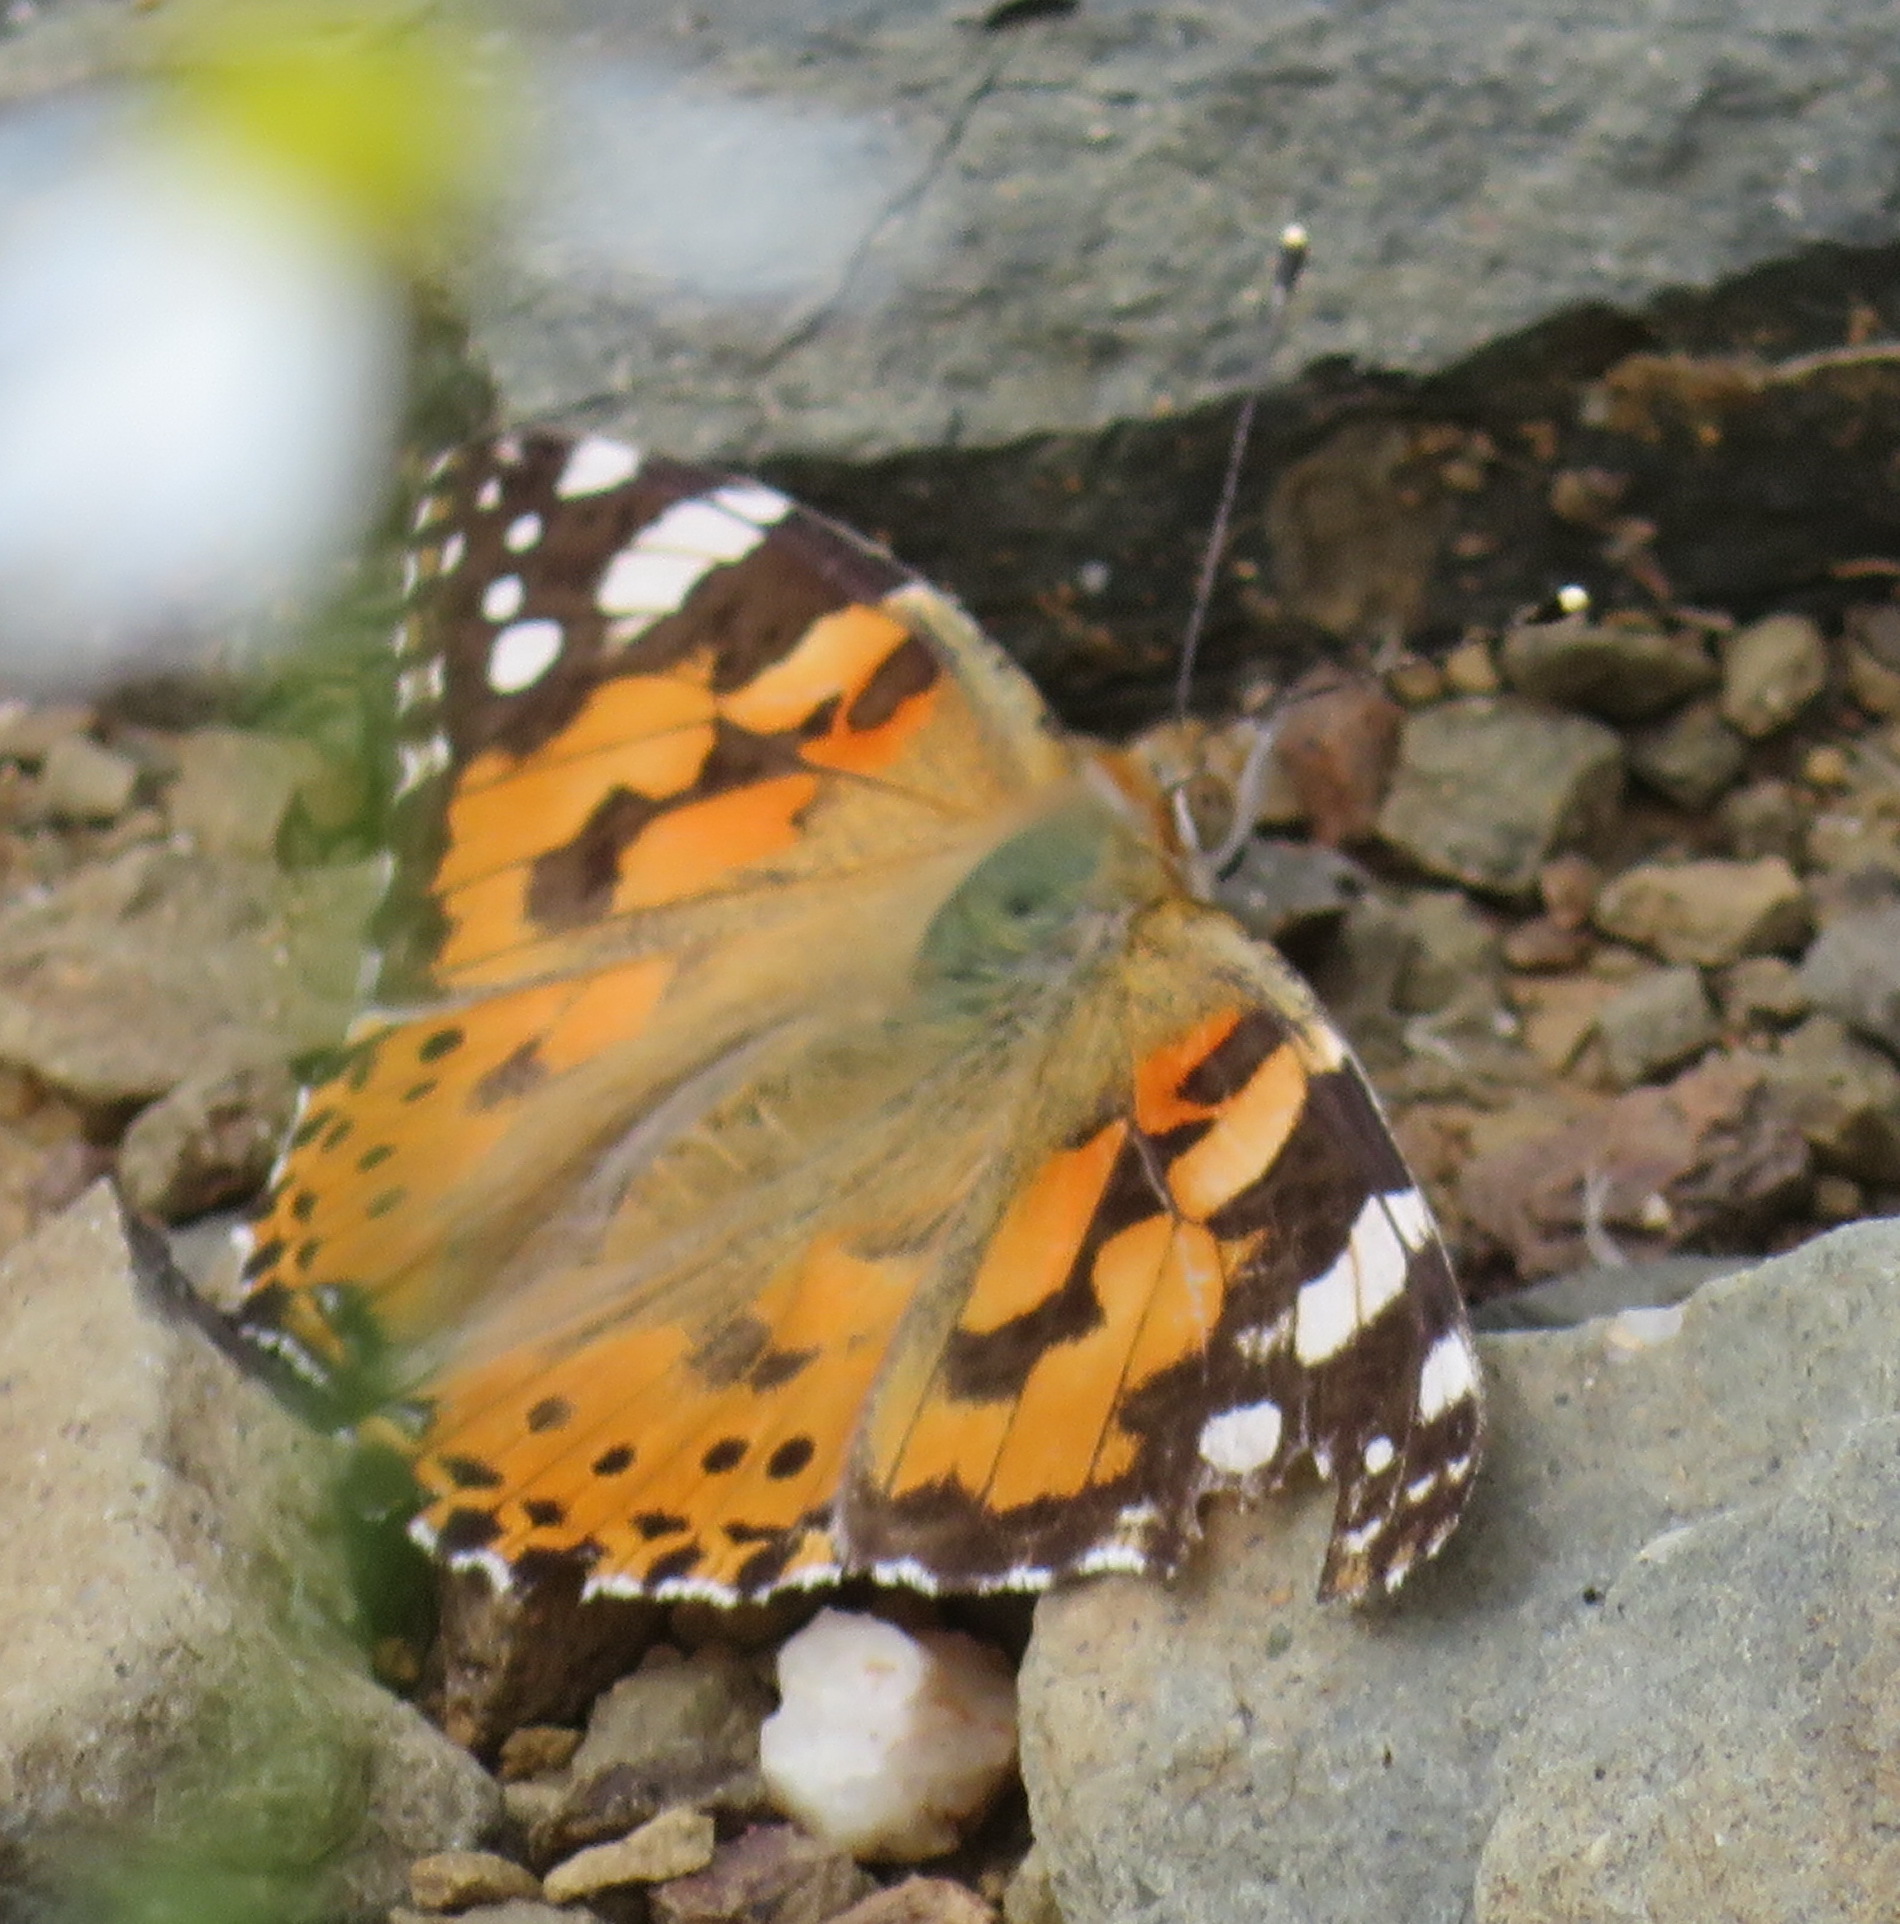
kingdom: Animalia
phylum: Arthropoda
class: Insecta
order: Lepidoptera
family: Nymphalidae
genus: Vanessa
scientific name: Vanessa cardui
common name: Painted lady
